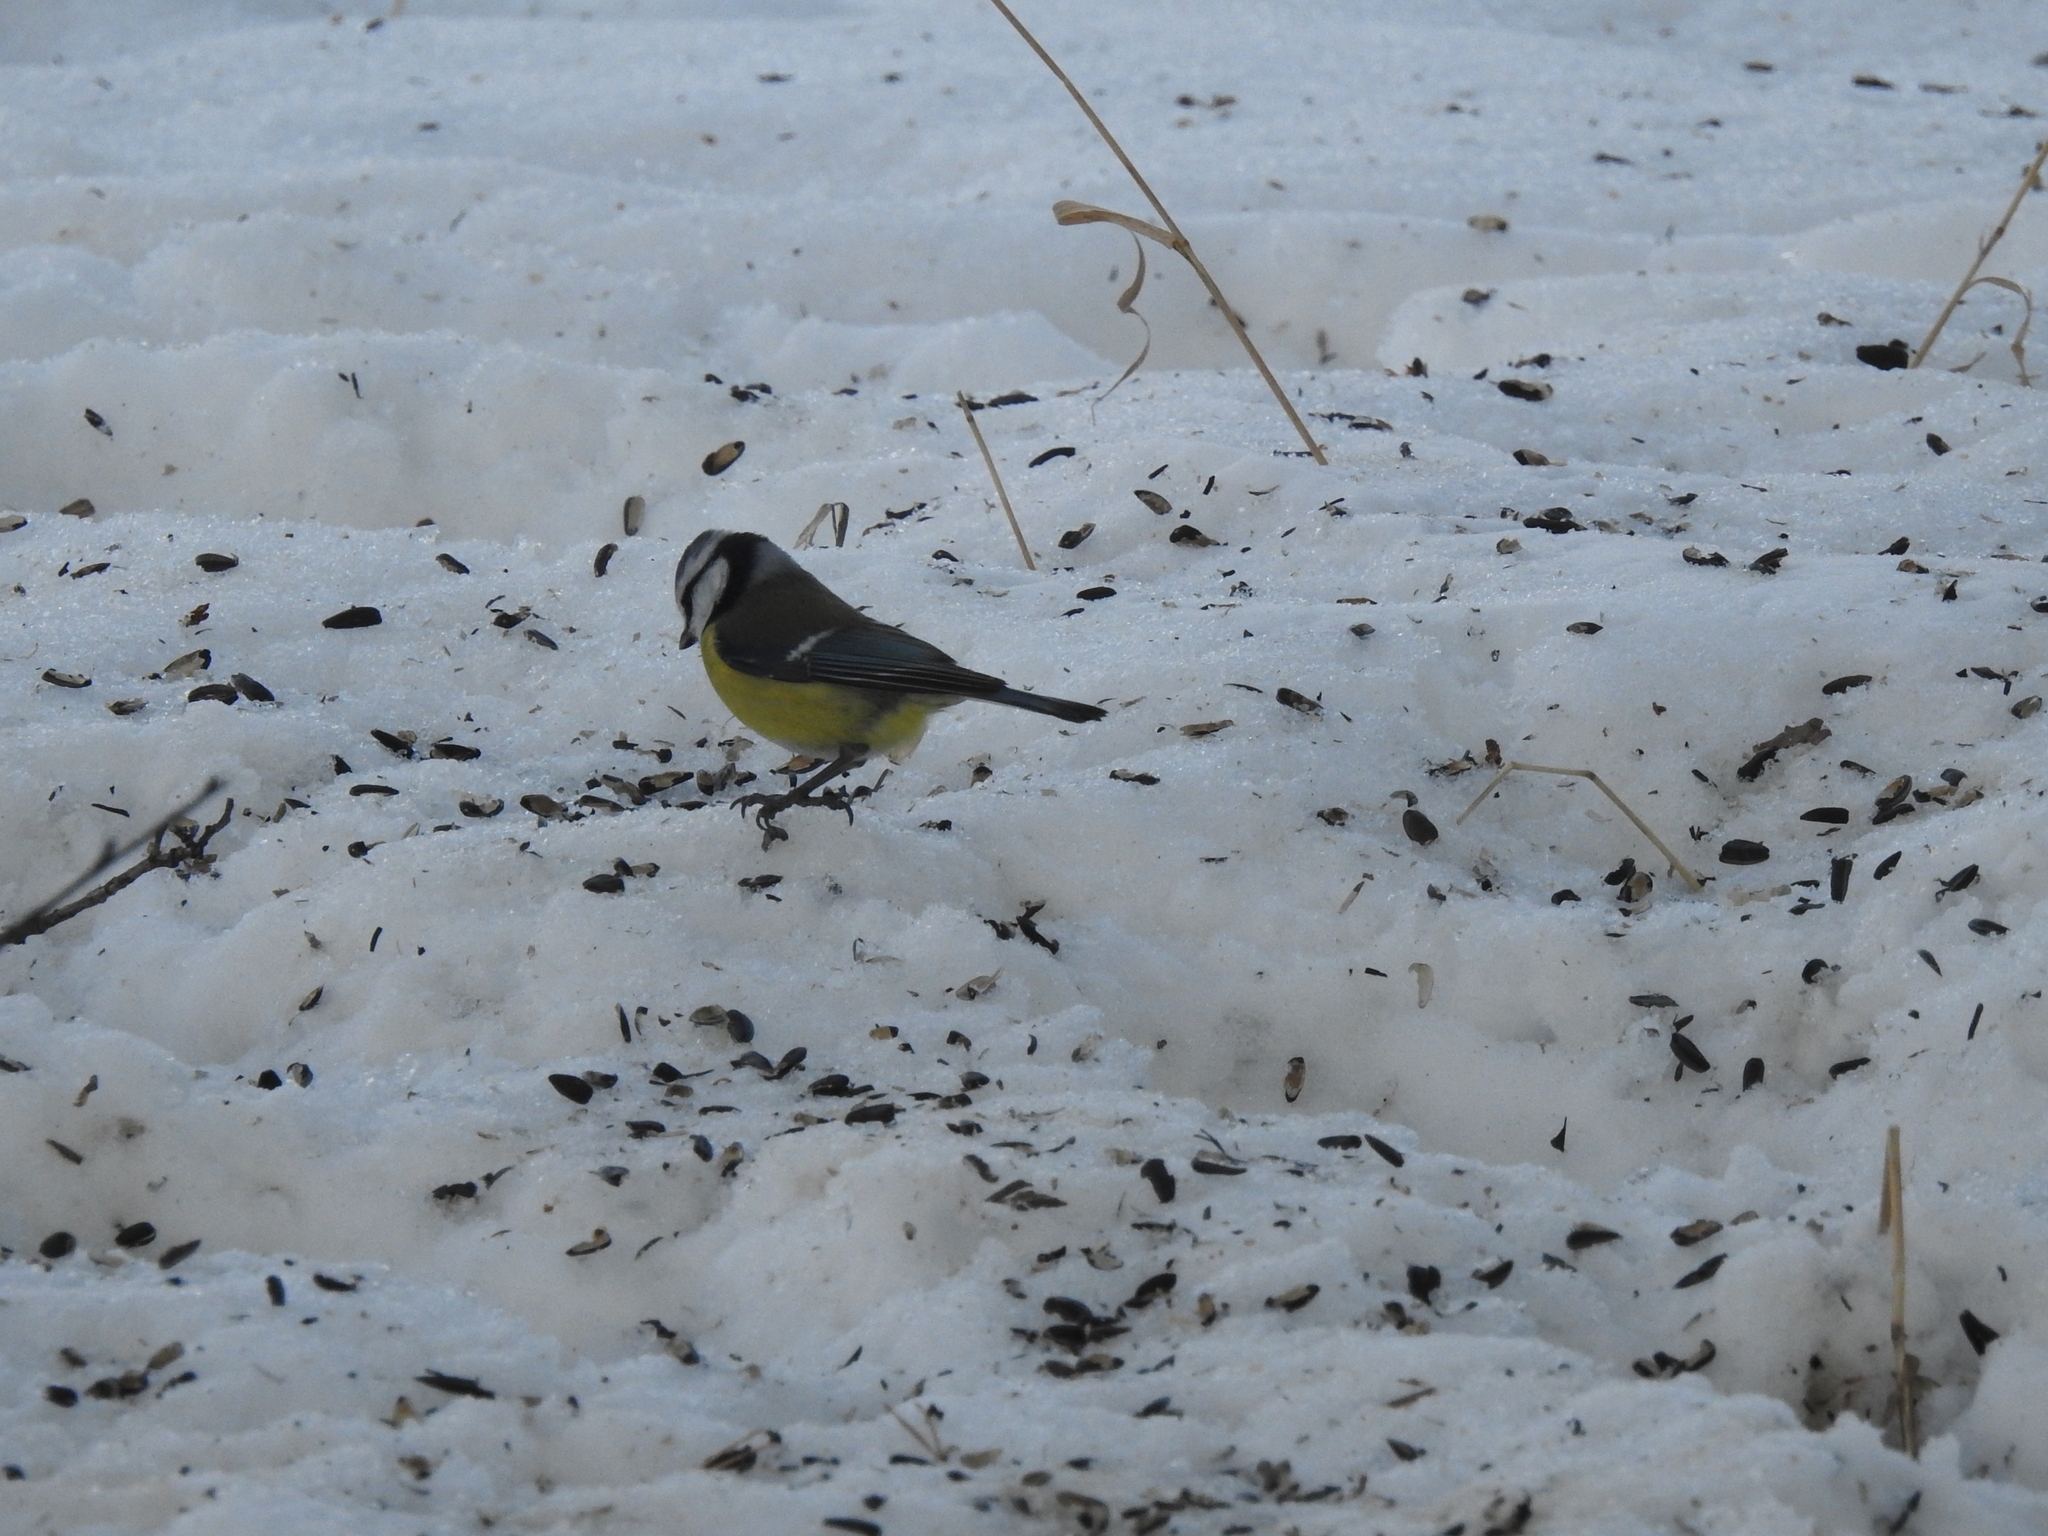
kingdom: Animalia
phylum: Chordata
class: Aves
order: Passeriformes
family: Paridae
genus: Cyanistes
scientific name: Cyanistes caeruleus
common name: Eurasian blue tit
